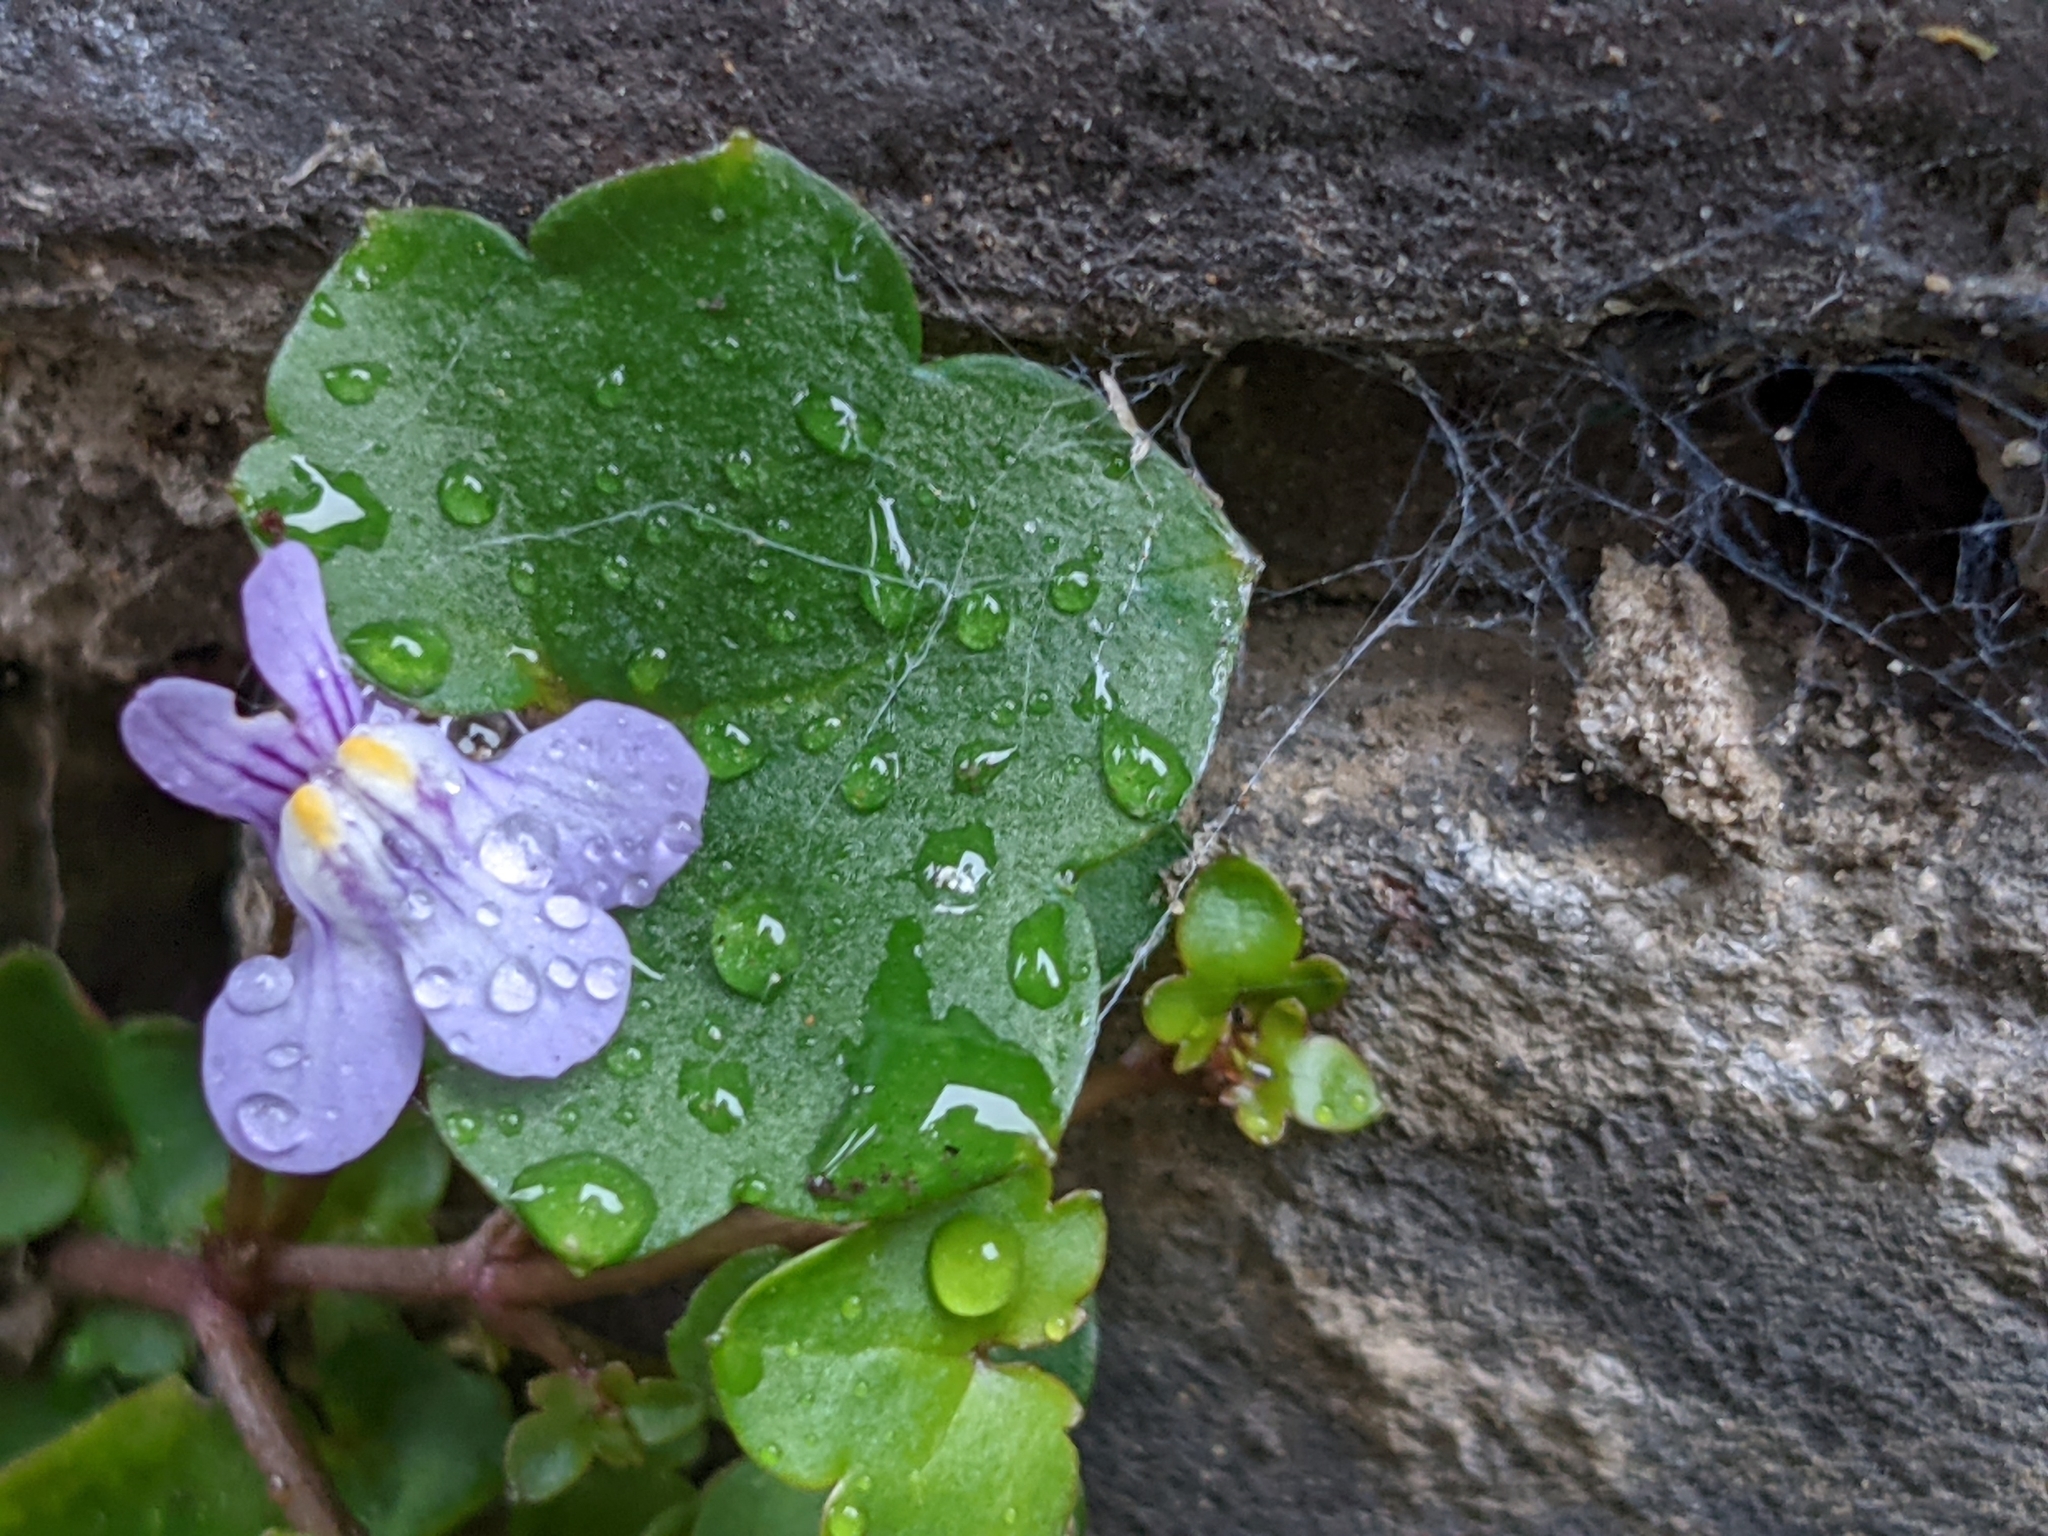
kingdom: Plantae
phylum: Tracheophyta
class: Magnoliopsida
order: Lamiales
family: Plantaginaceae
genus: Cymbalaria
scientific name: Cymbalaria muralis
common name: Ivy-leaved toadflax
